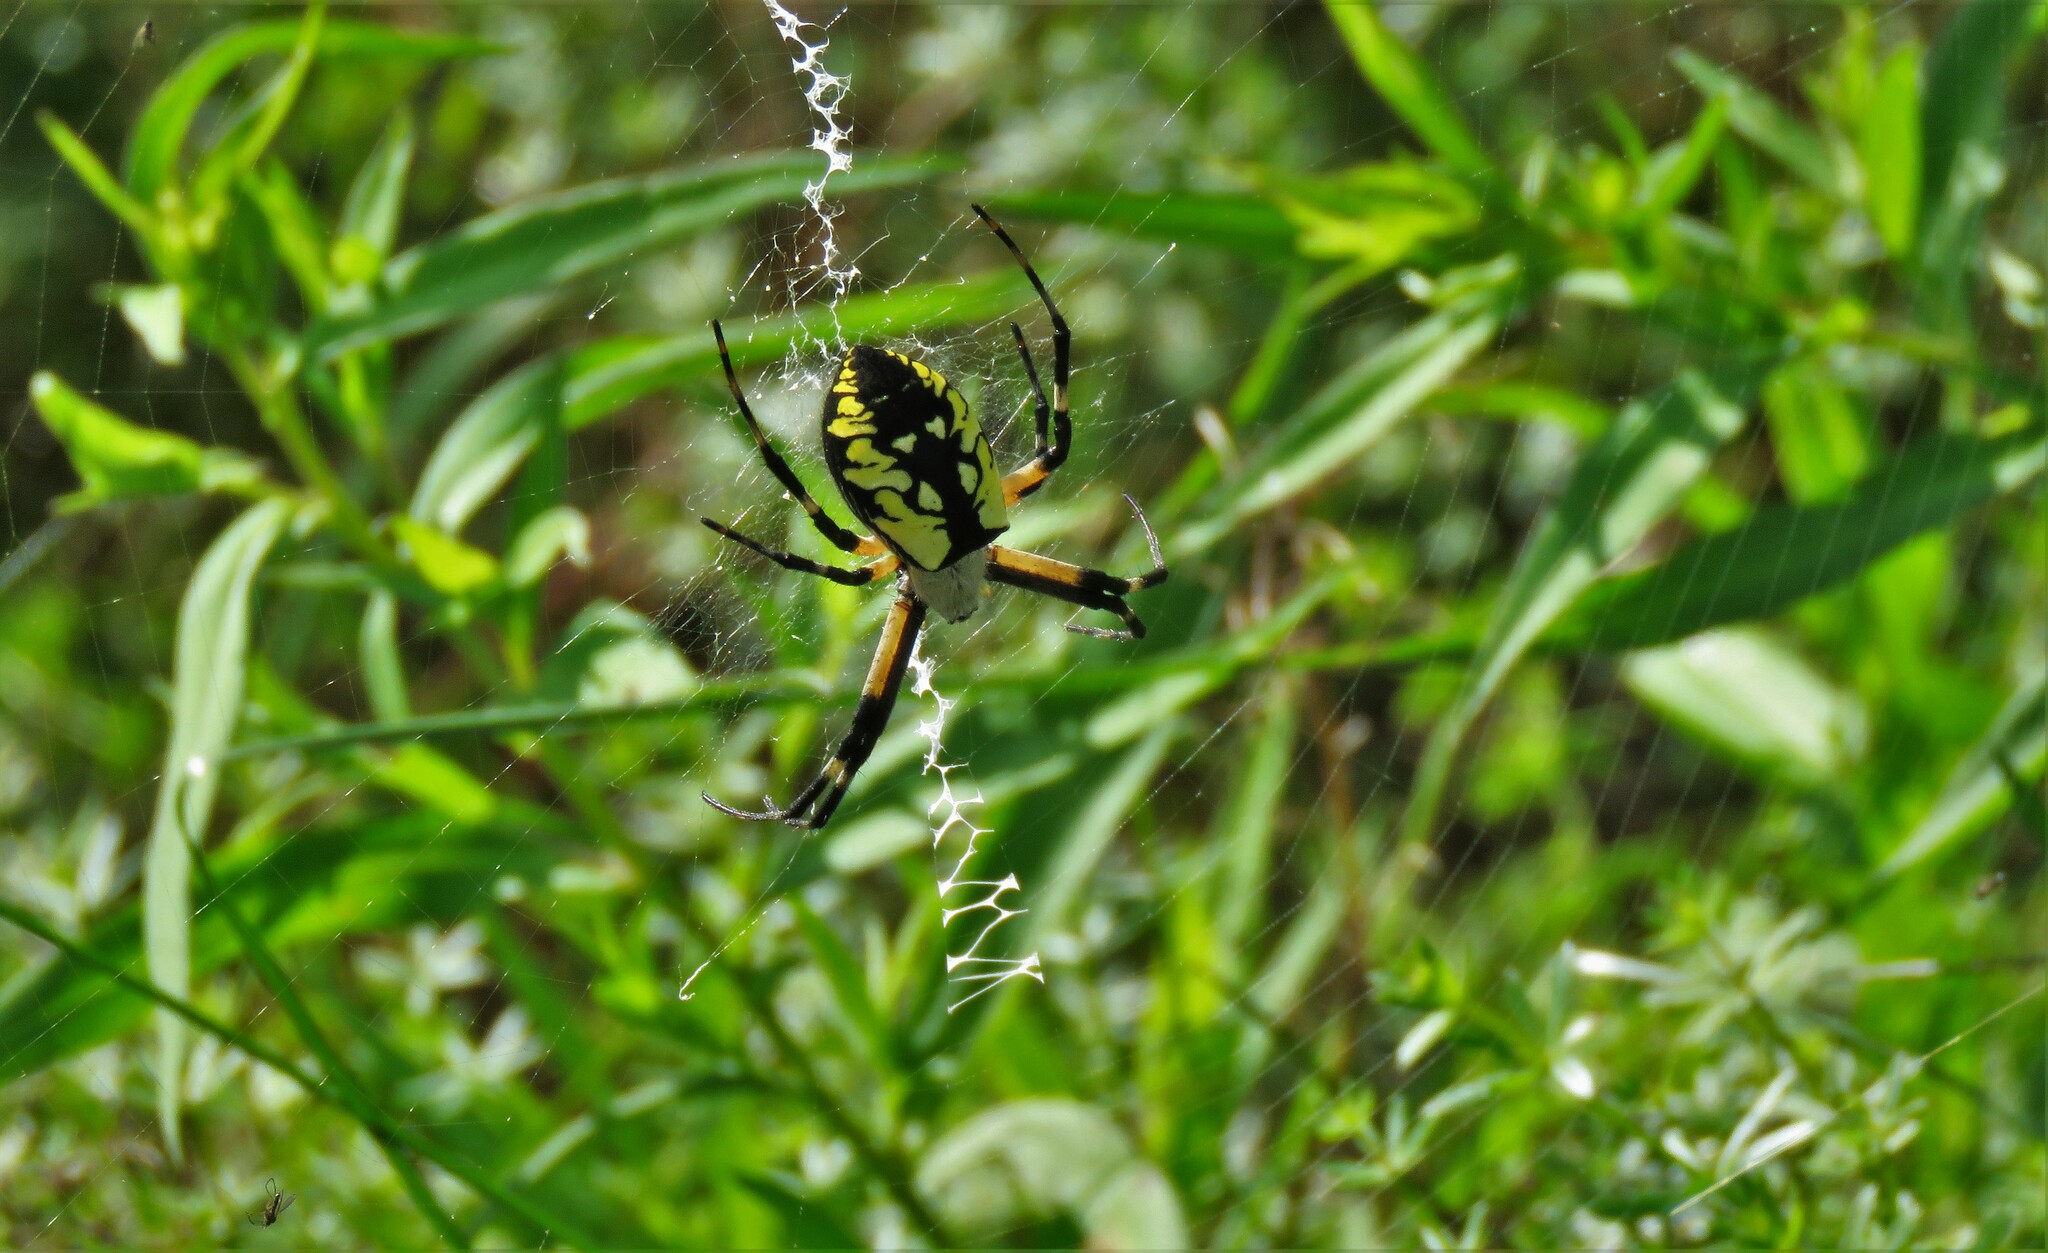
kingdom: Animalia
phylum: Arthropoda
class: Arachnida
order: Araneae
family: Araneidae
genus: Argiope
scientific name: Argiope aurantia
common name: Orb weavers
